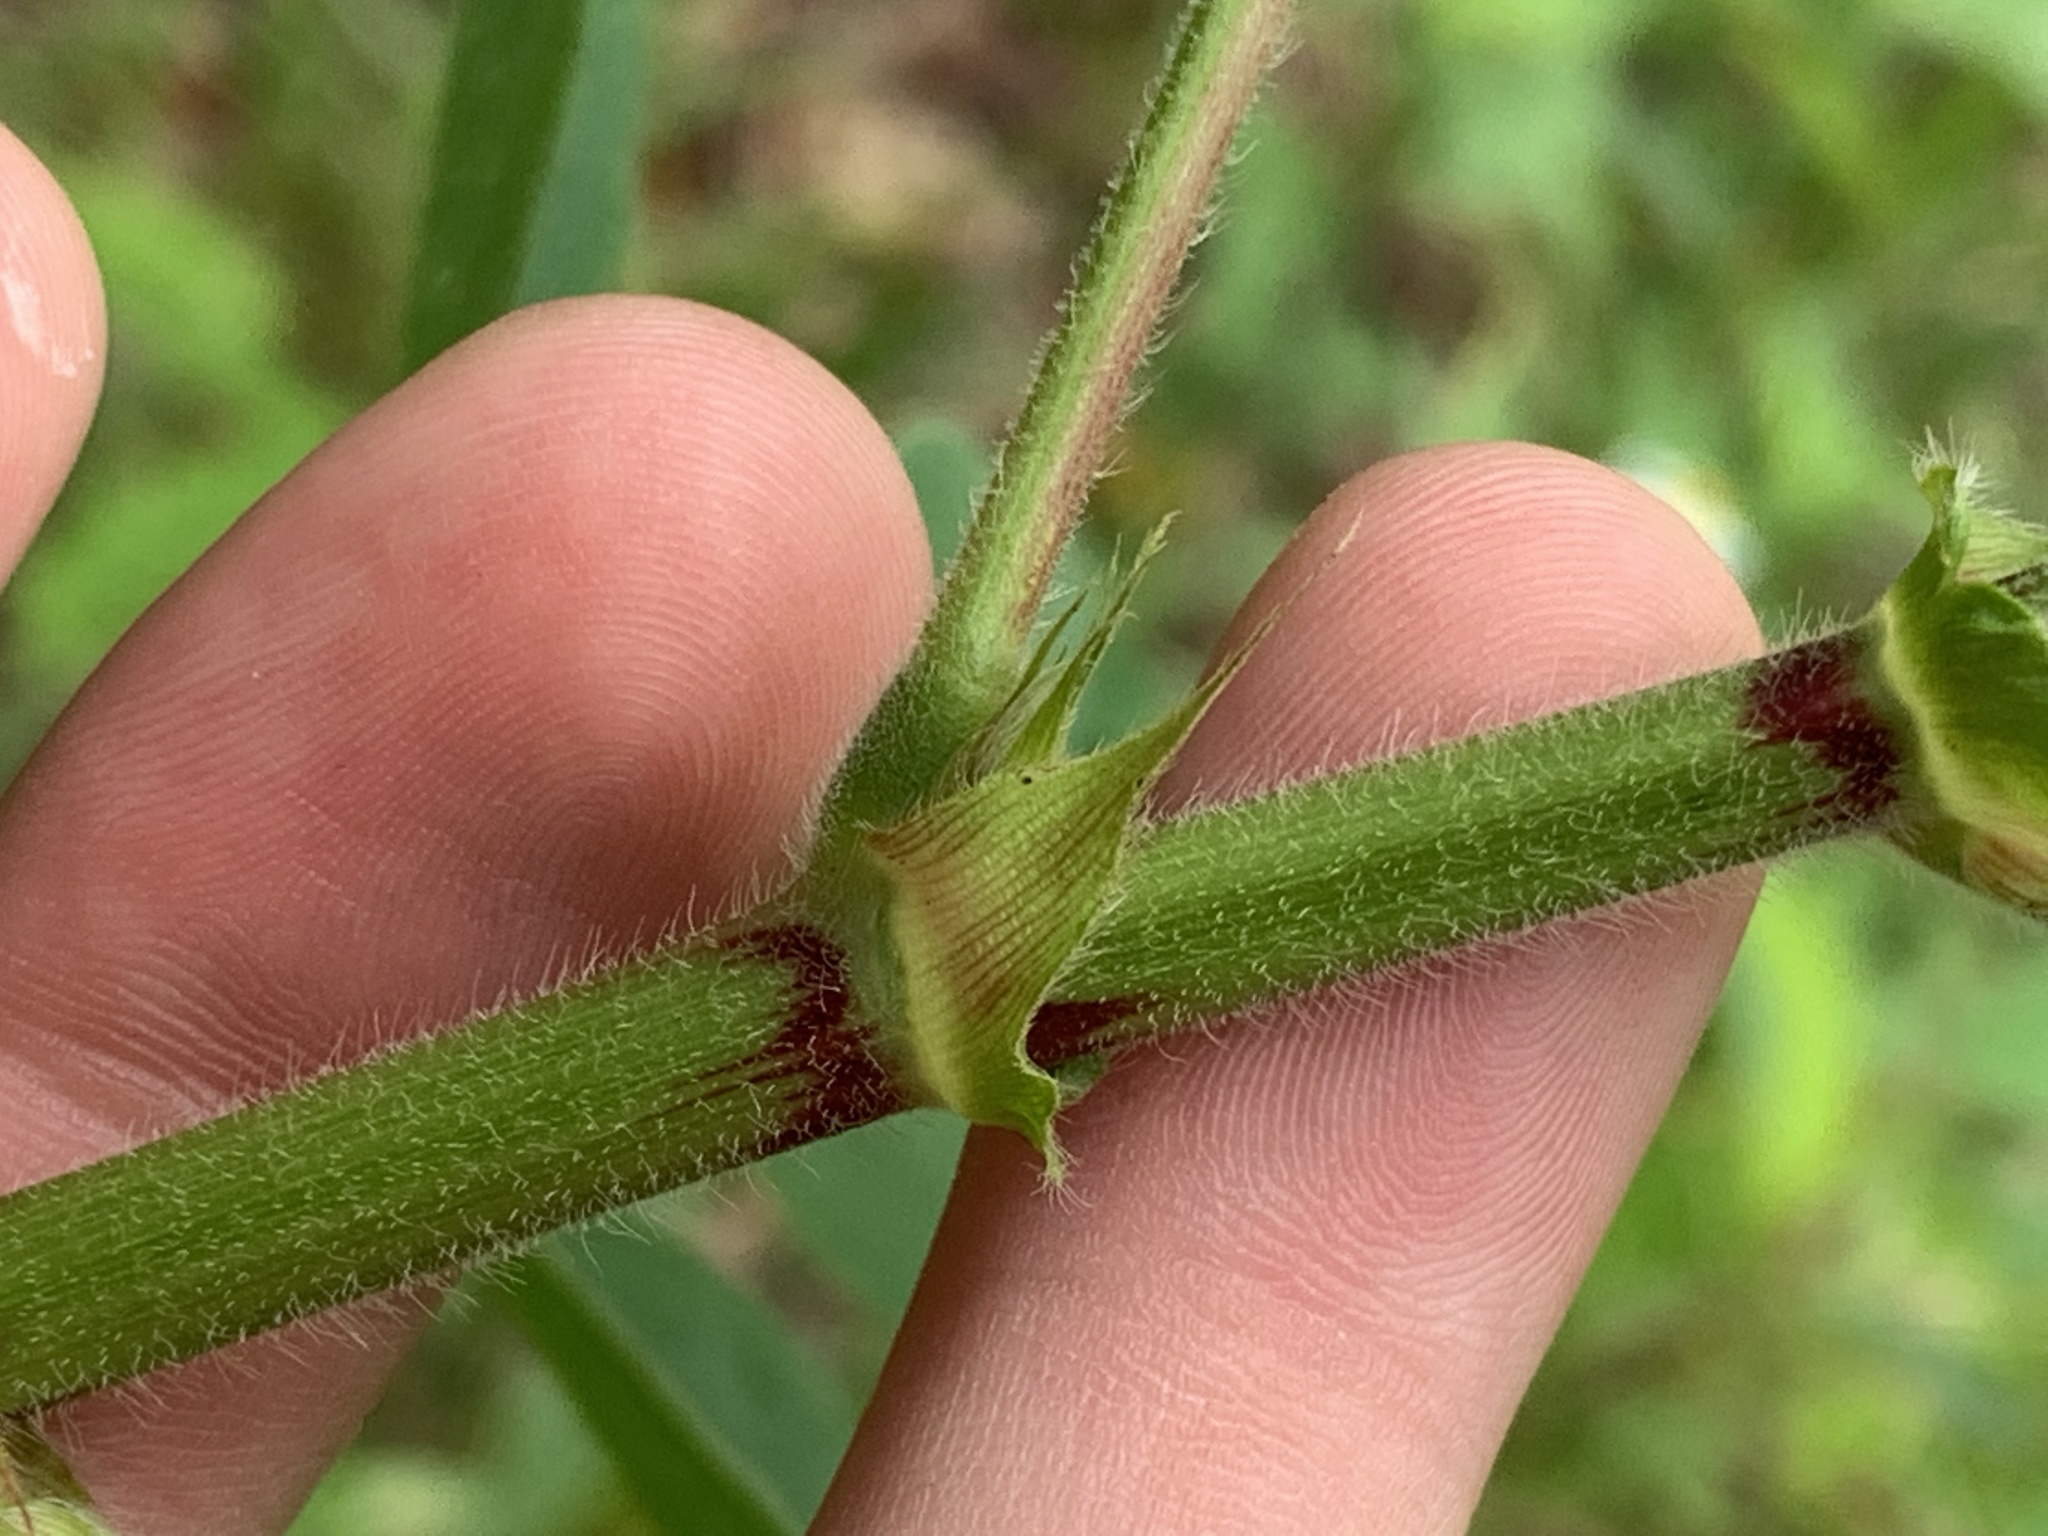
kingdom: Plantae
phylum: Tracheophyta
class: Magnoliopsida
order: Fabales
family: Fabaceae
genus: Desmodium
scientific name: Desmodium tortuosum
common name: Dixie ticktrefoil
